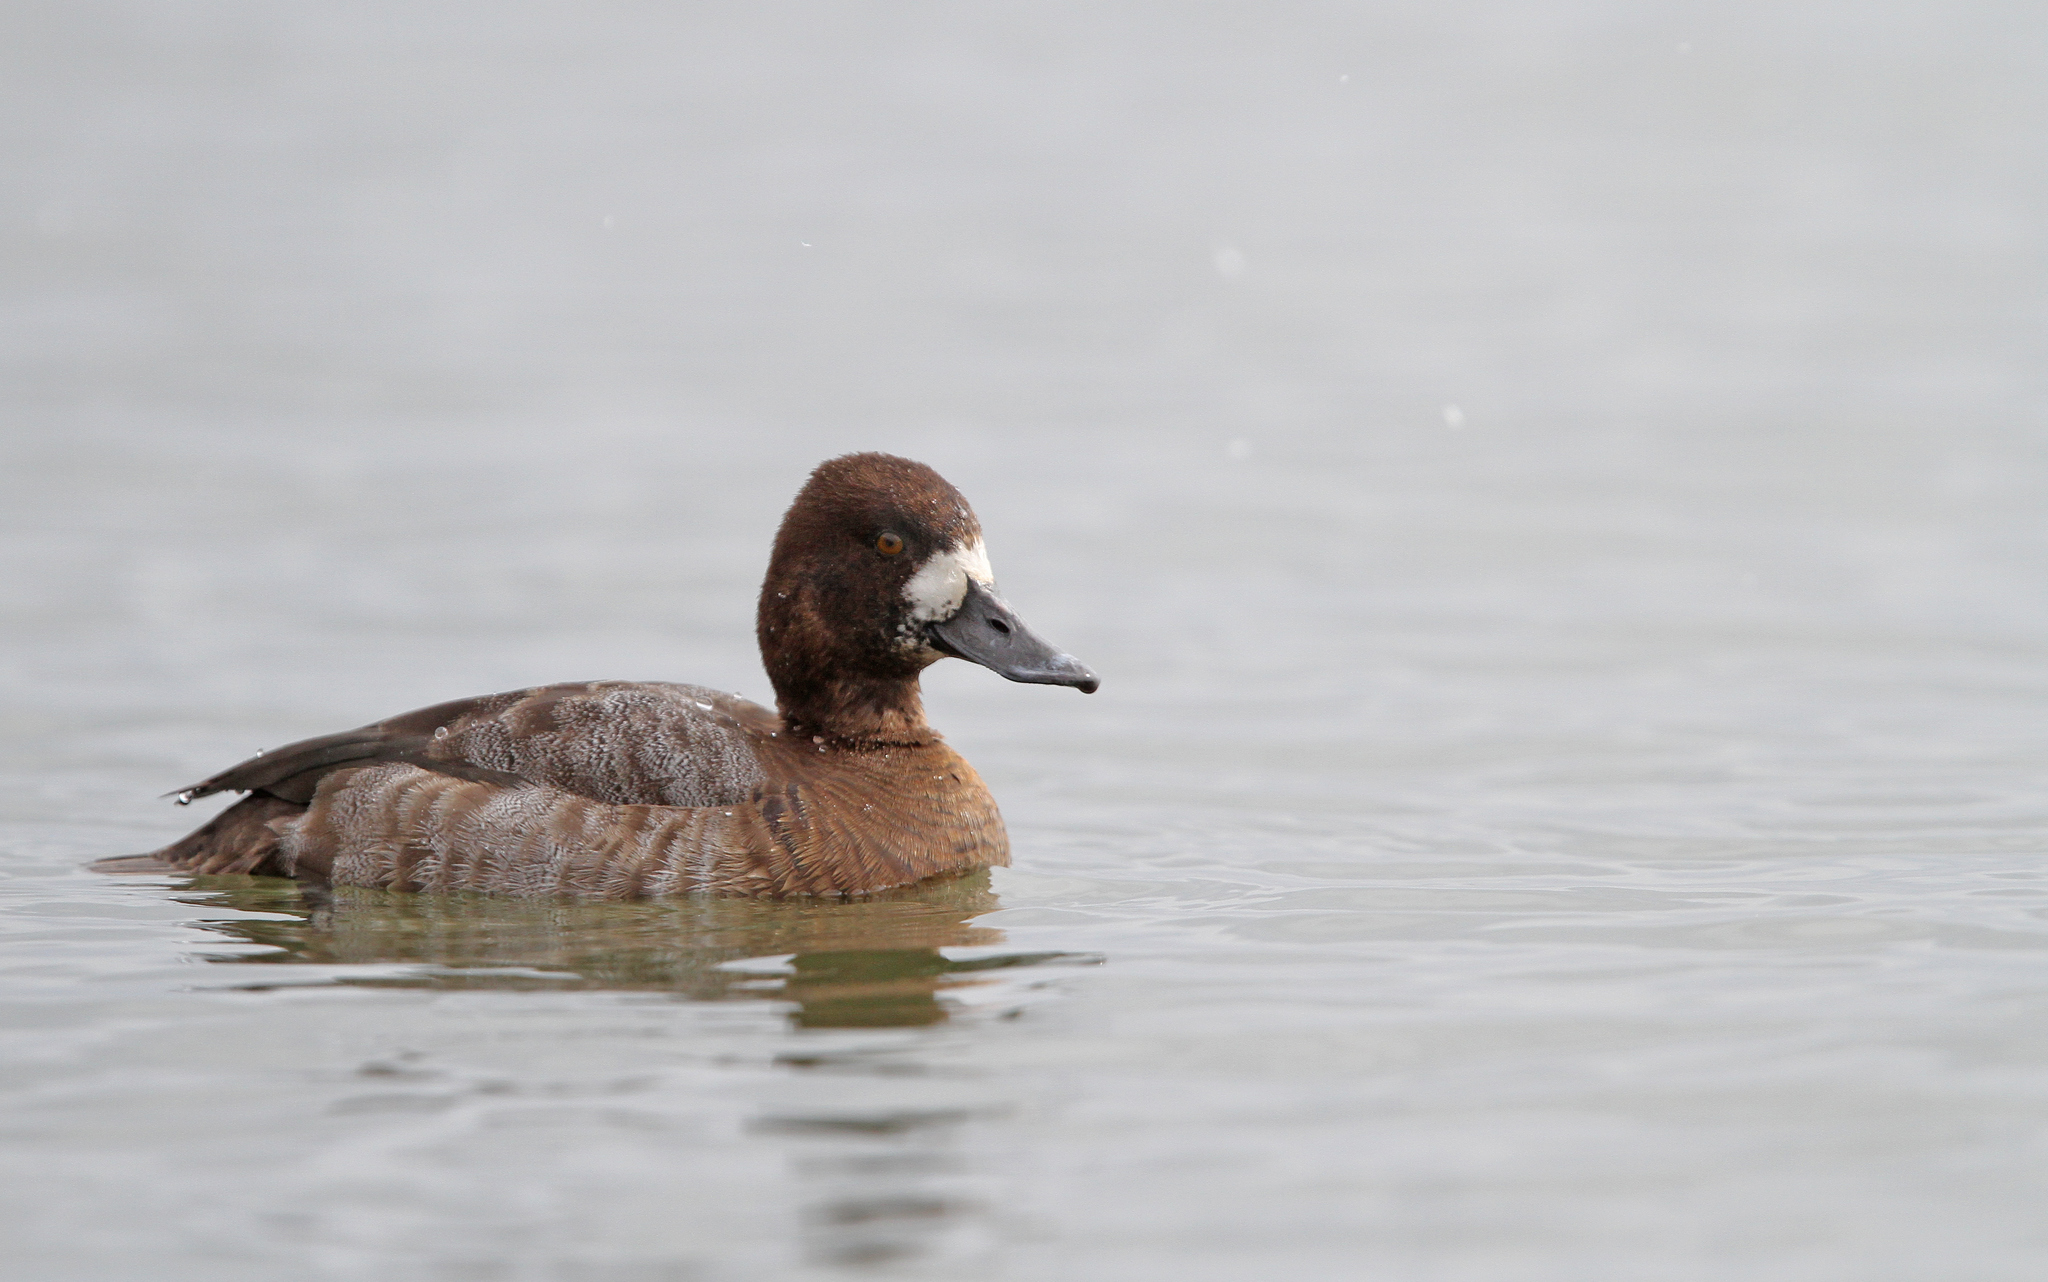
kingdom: Animalia
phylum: Chordata
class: Aves
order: Anseriformes
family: Anatidae
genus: Aythya
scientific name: Aythya affinis
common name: Lesser scaup
